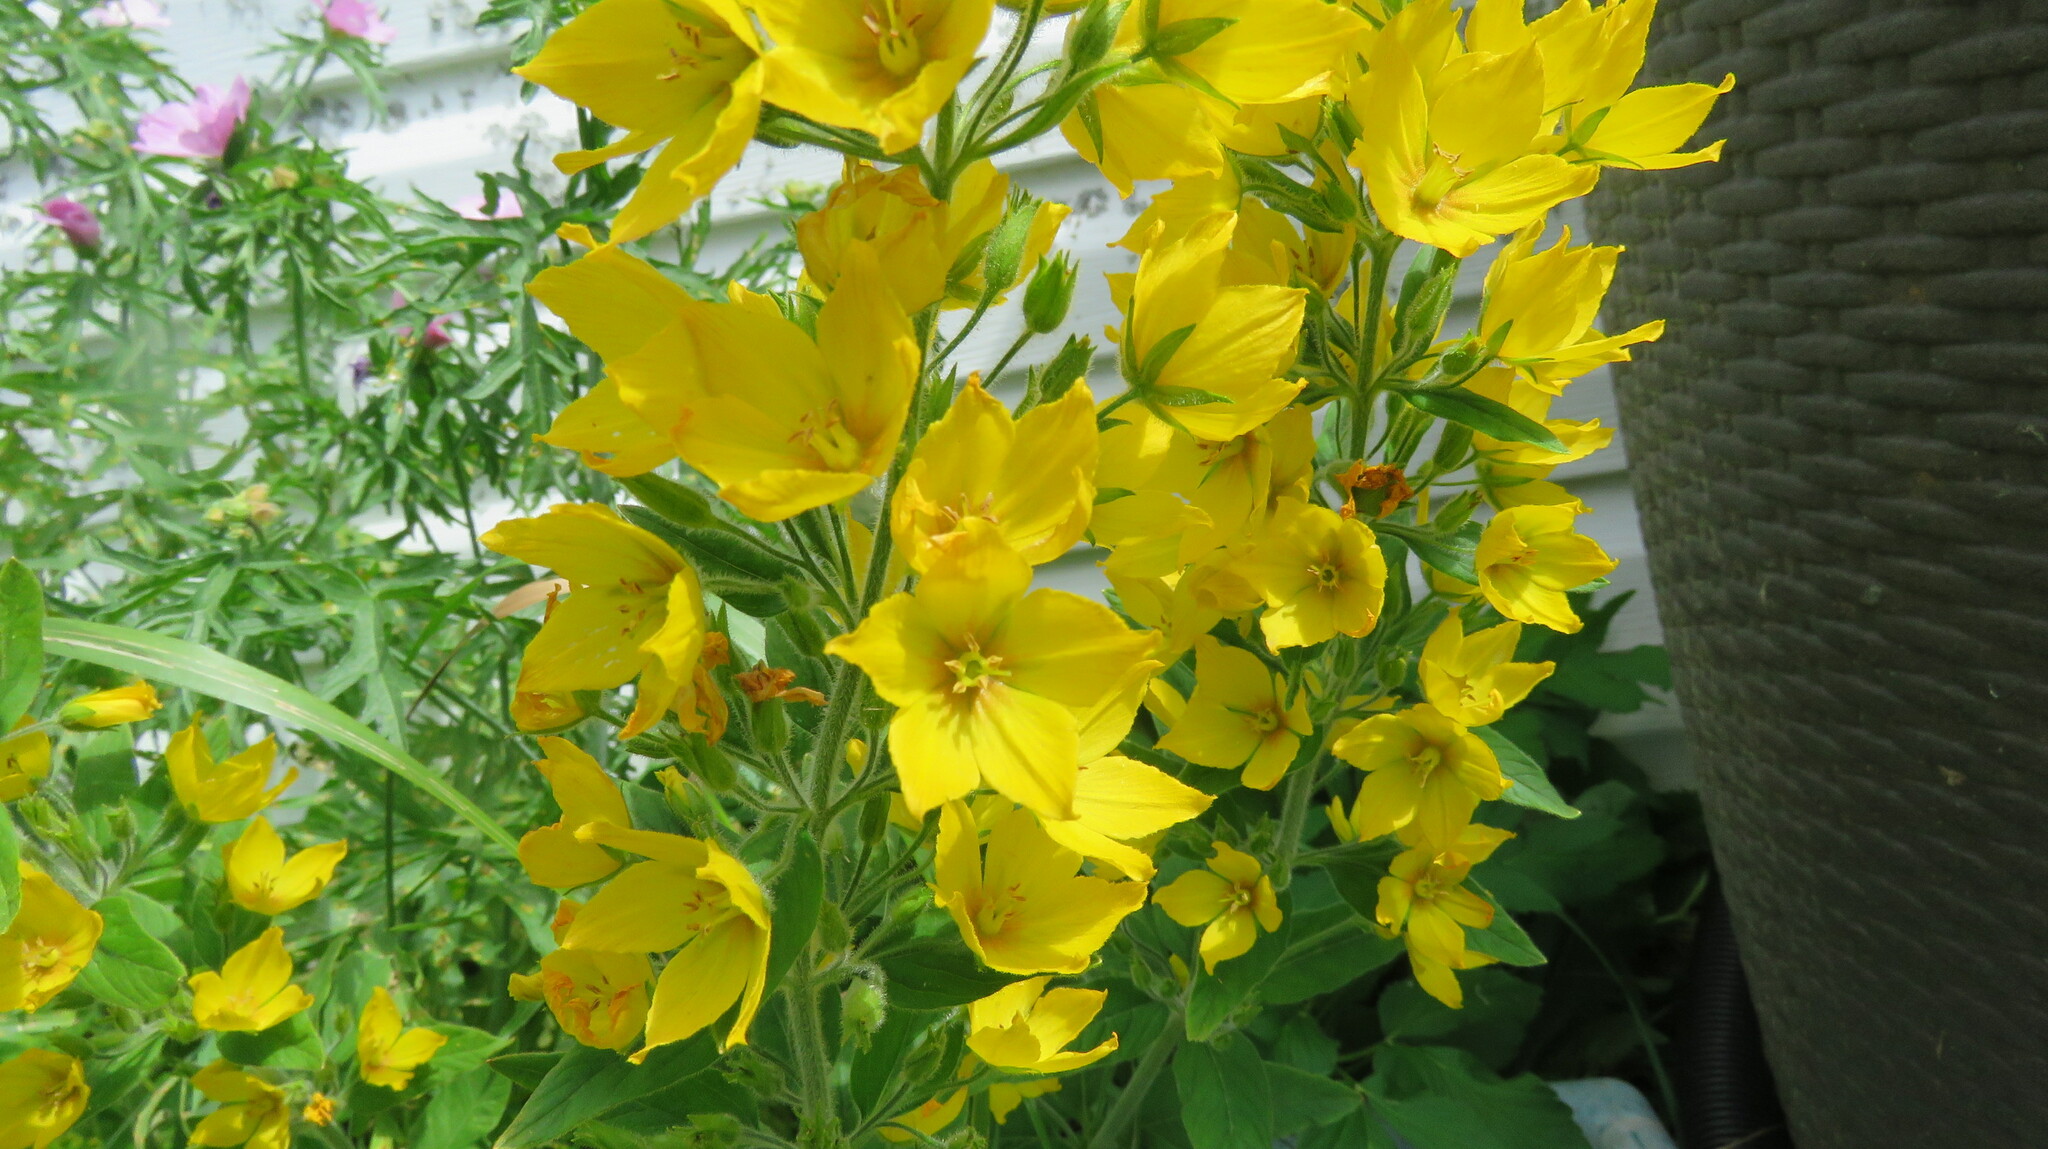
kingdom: Plantae
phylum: Tracheophyta
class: Magnoliopsida
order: Ericales
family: Primulaceae
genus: Lysimachia
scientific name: Lysimachia punctata
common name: Dotted loosestrife
